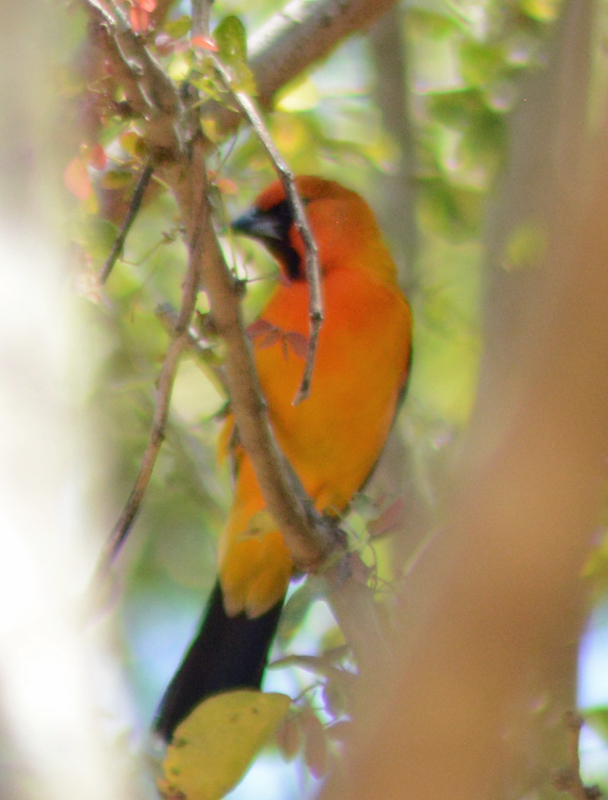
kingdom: Animalia
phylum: Chordata
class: Aves
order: Passeriformes
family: Icteridae
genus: Icterus
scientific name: Icterus pustulatus
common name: Streak-backed oriole
